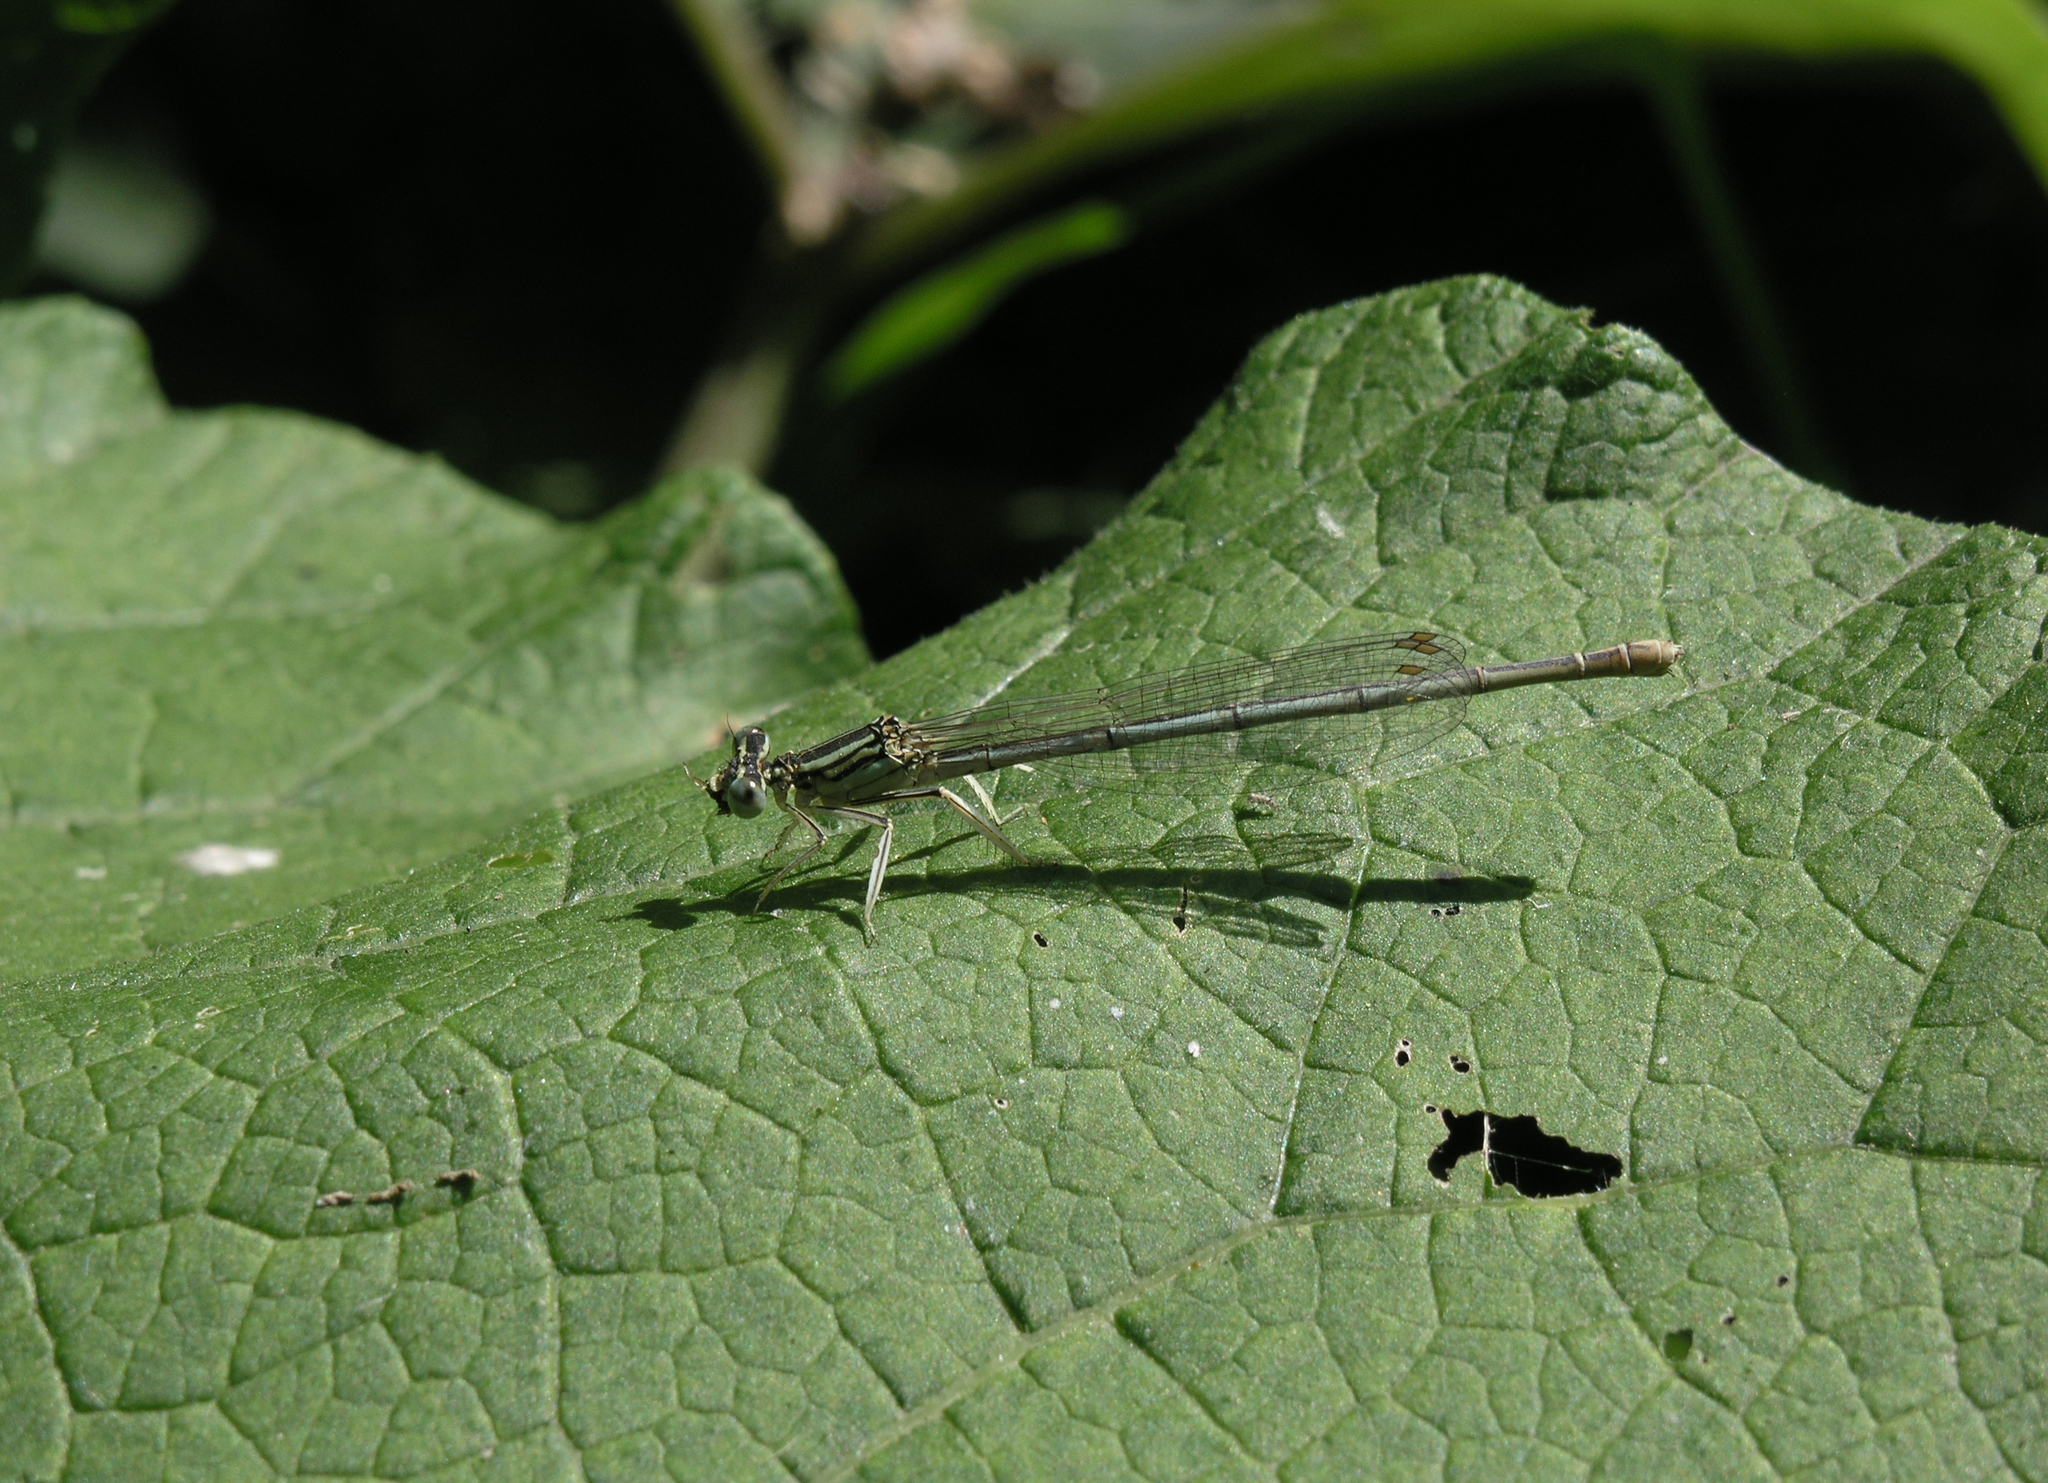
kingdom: Animalia
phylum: Arthropoda
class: Insecta
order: Odonata
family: Platycnemididae
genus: Platycnemis
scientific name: Platycnemis pennipes
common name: White-legged damselfly
